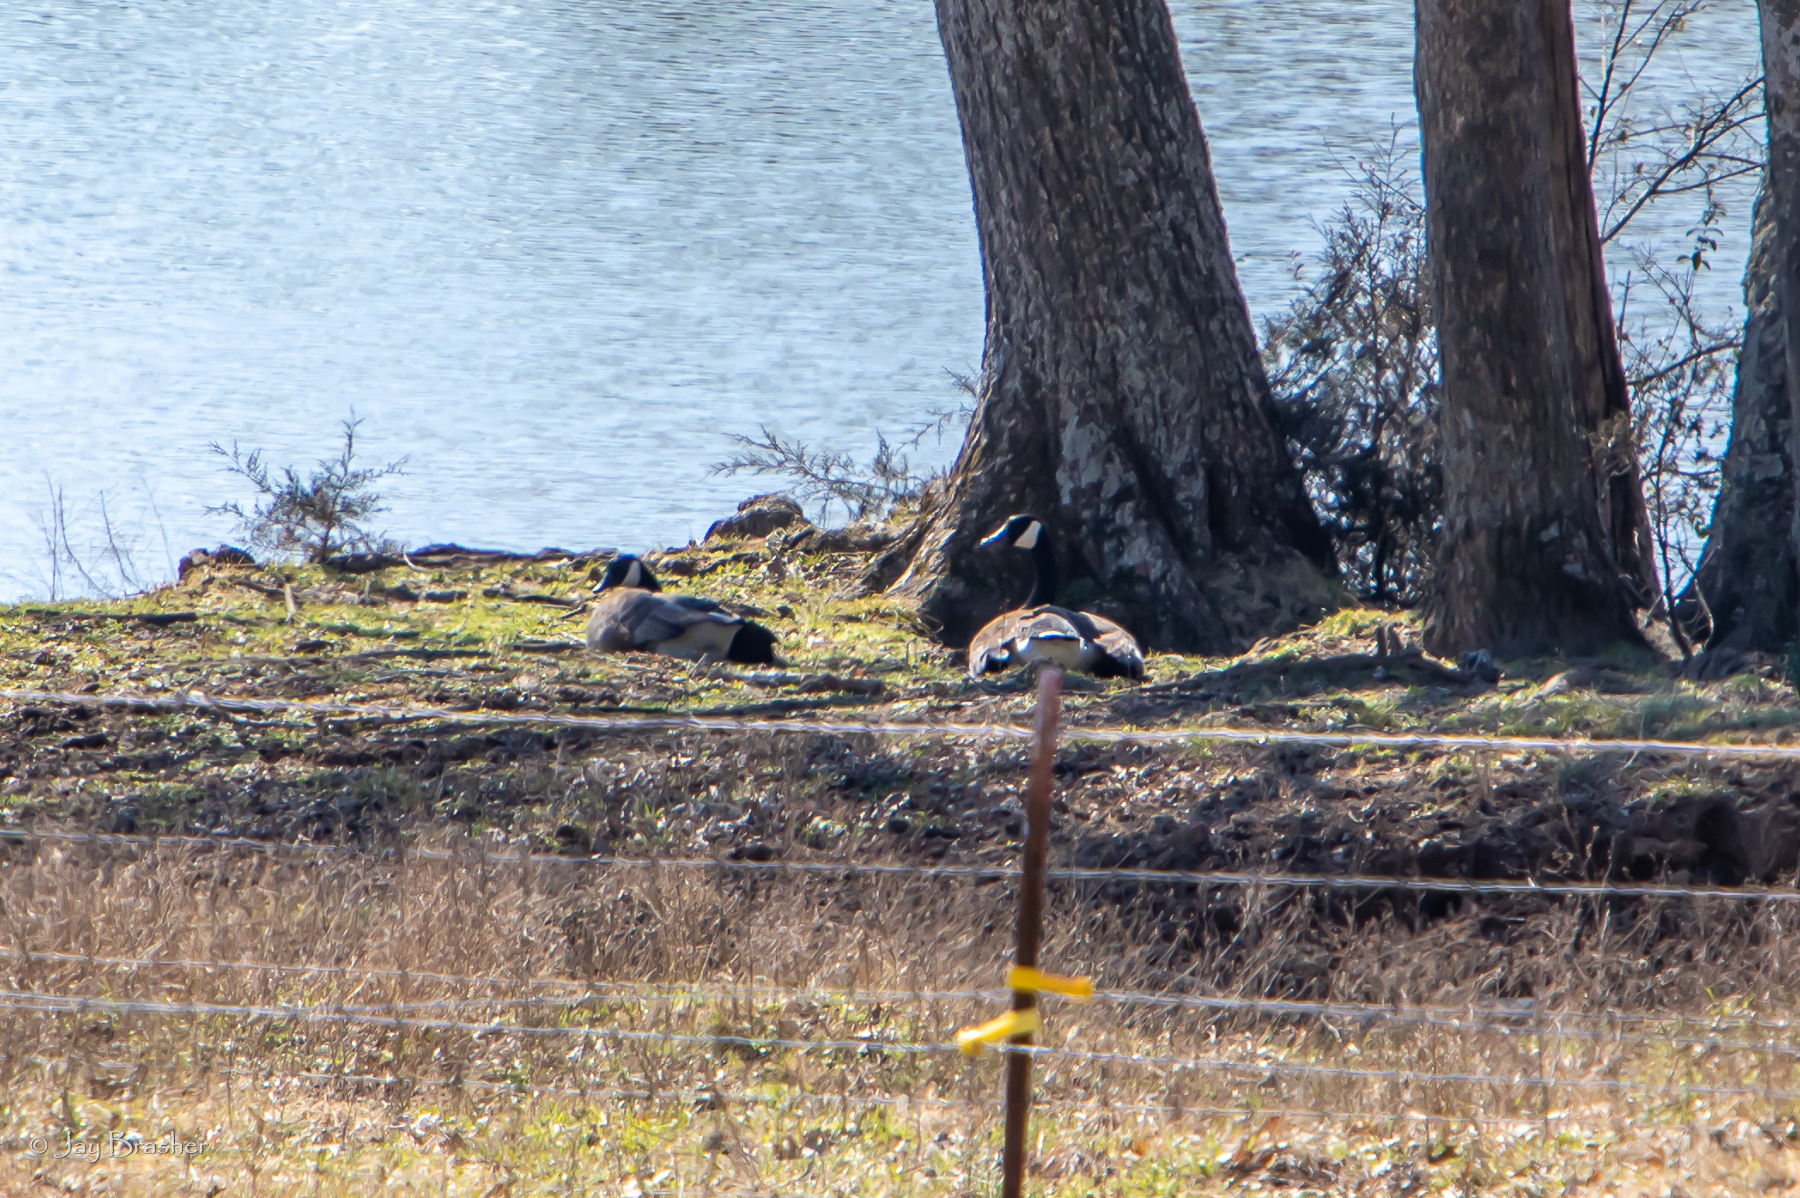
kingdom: Animalia
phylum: Chordata
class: Aves
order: Anseriformes
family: Anatidae
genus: Branta
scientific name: Branta canadensis
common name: Canada goose
